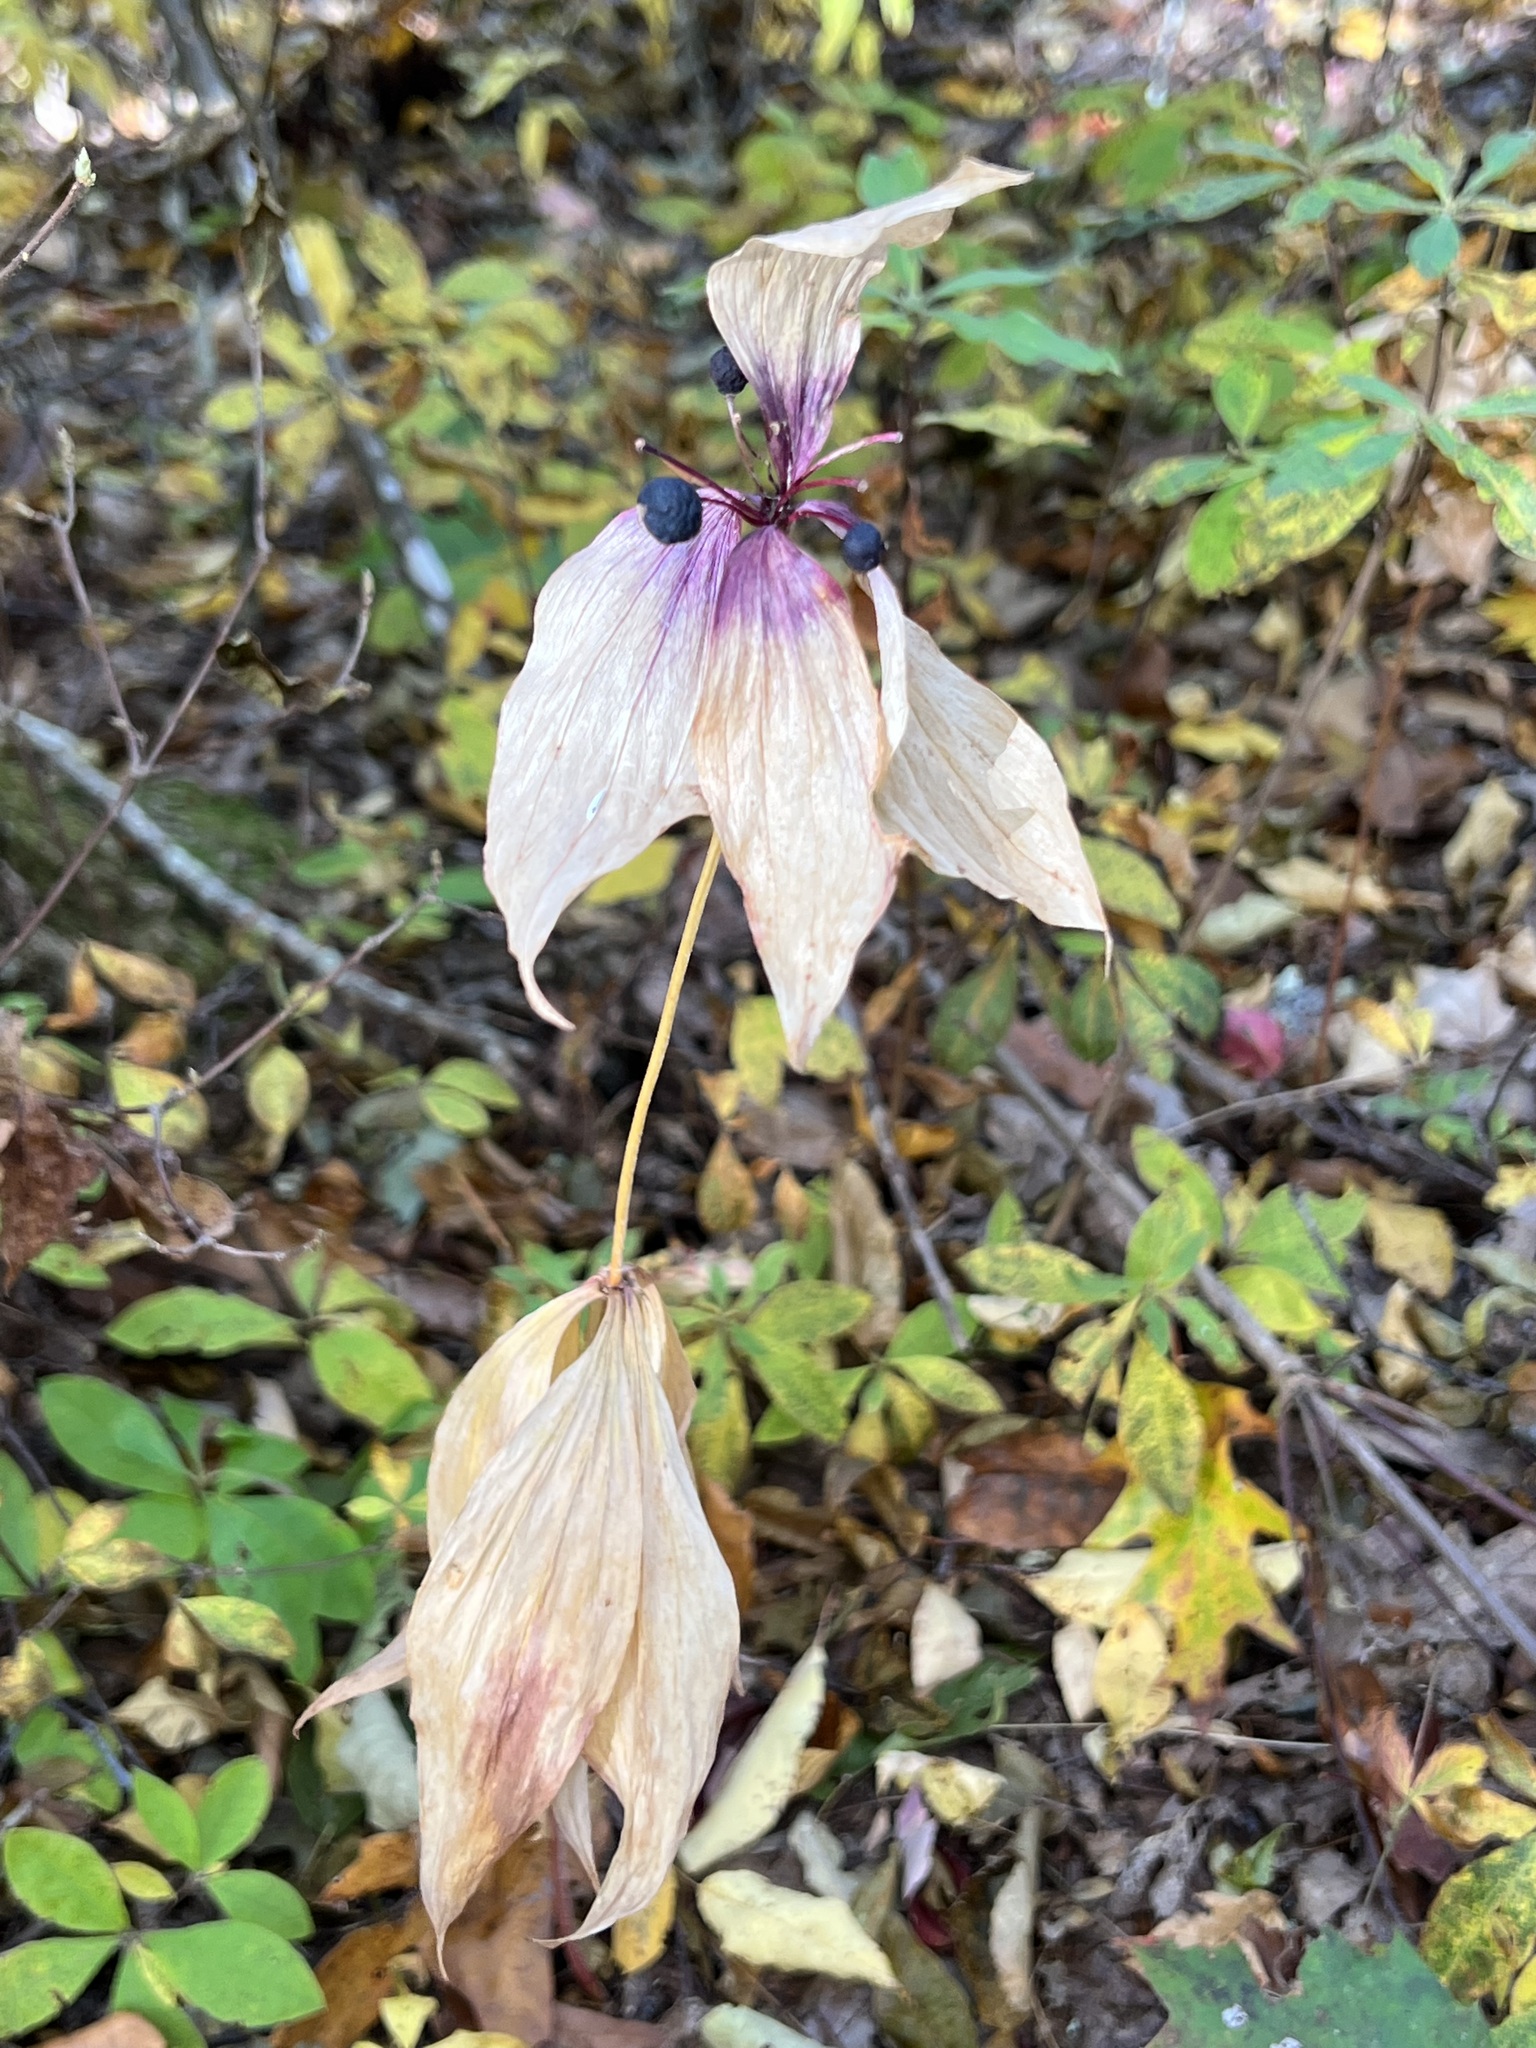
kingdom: Plantae
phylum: Tracheophyta
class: Liliopsida
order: Liliales
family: Liliaceae
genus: Medeola
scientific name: Medeola virginiana
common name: Indian cucumber-root
